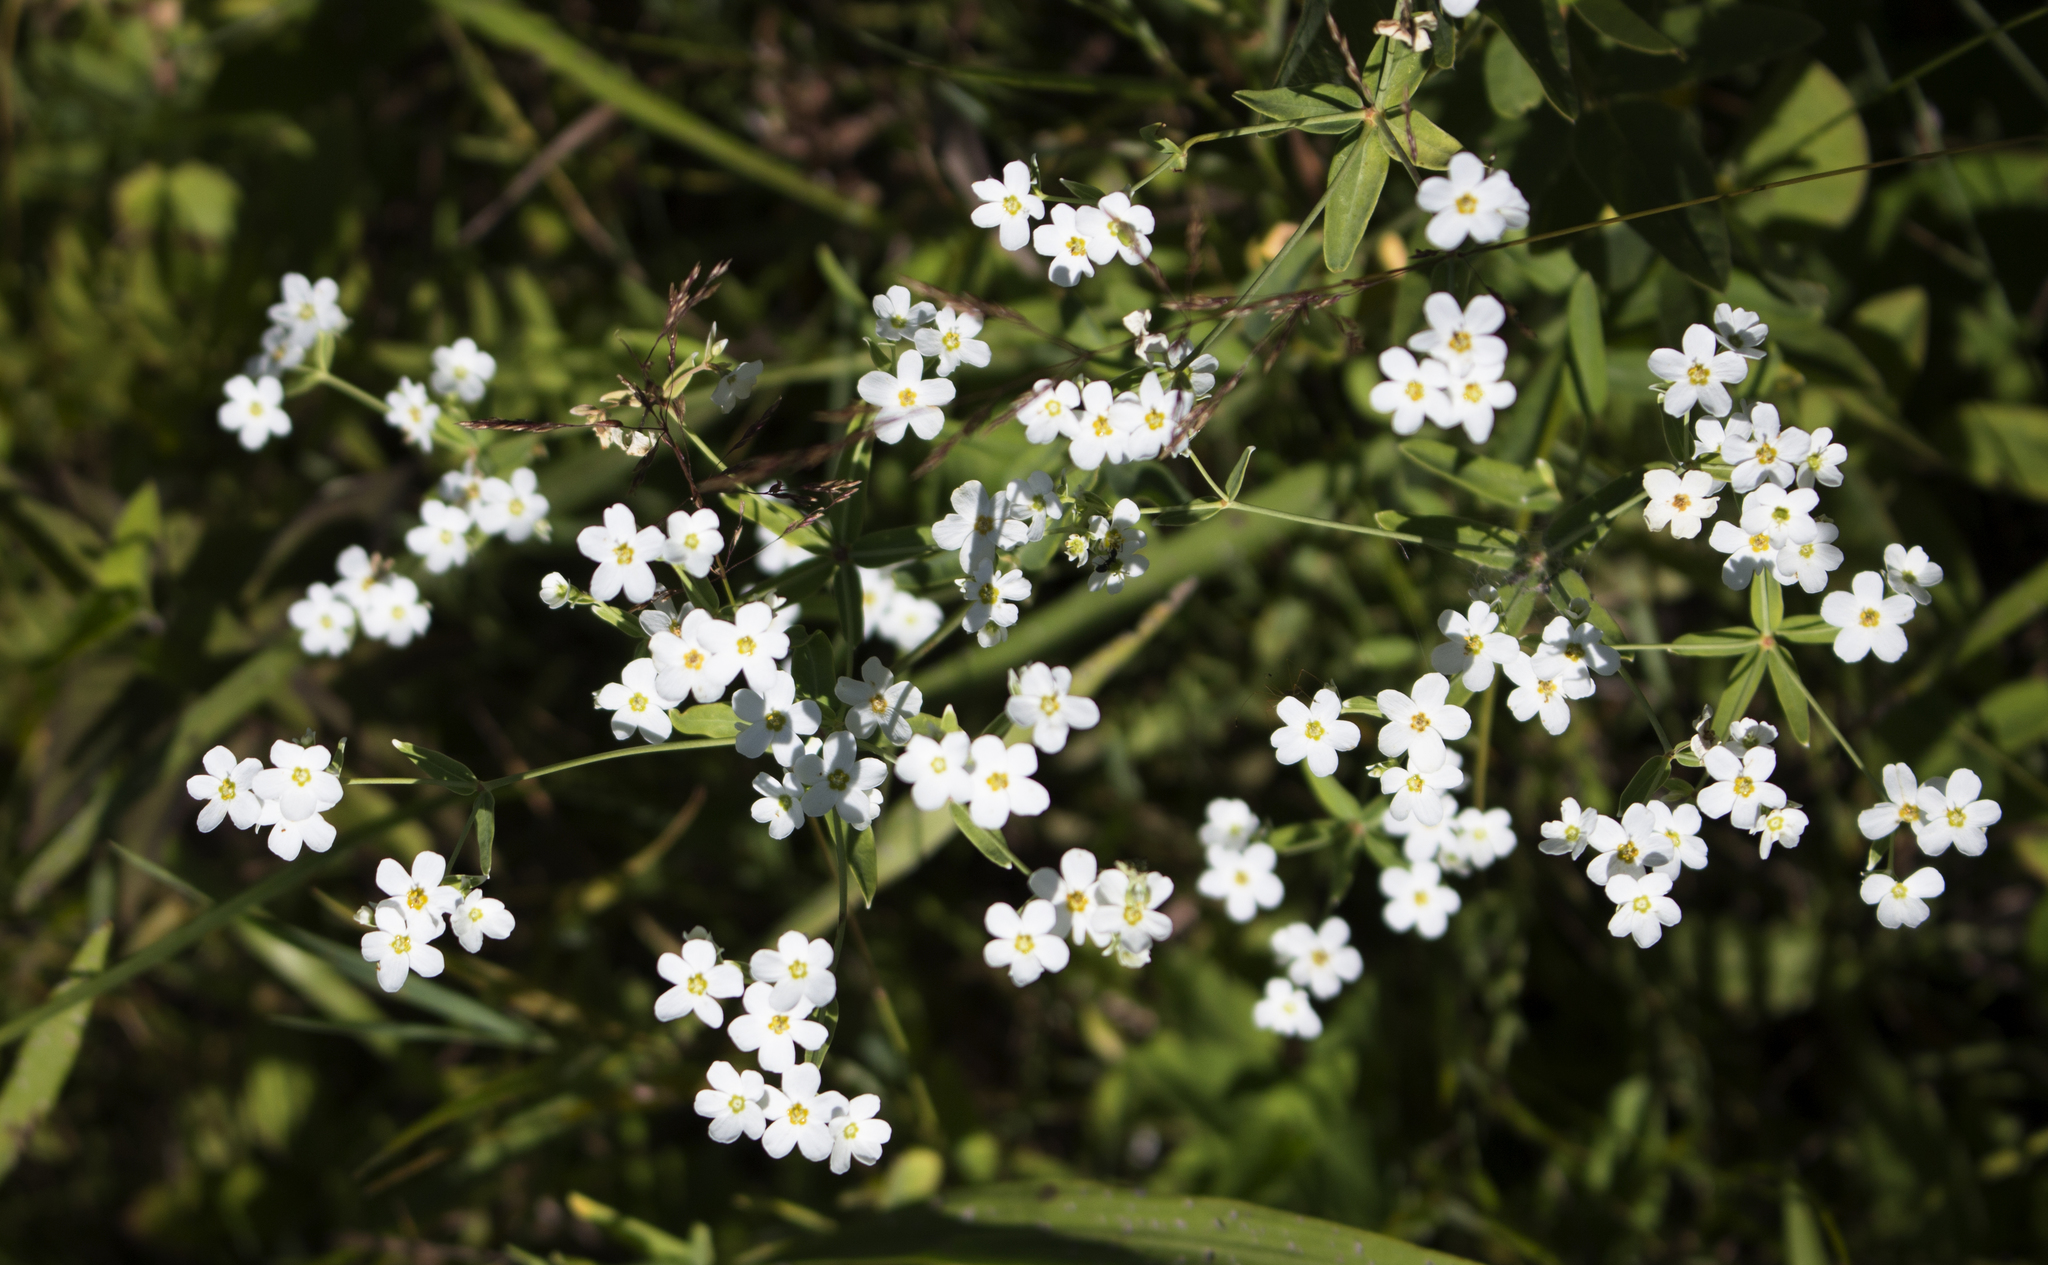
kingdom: Plantae
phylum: Tracheophyta
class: Magnoliopsida
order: Malpighiales
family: Euphorbiaceae
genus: Euphorbia
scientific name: Euphorbia corollata
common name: Flowering spurge
